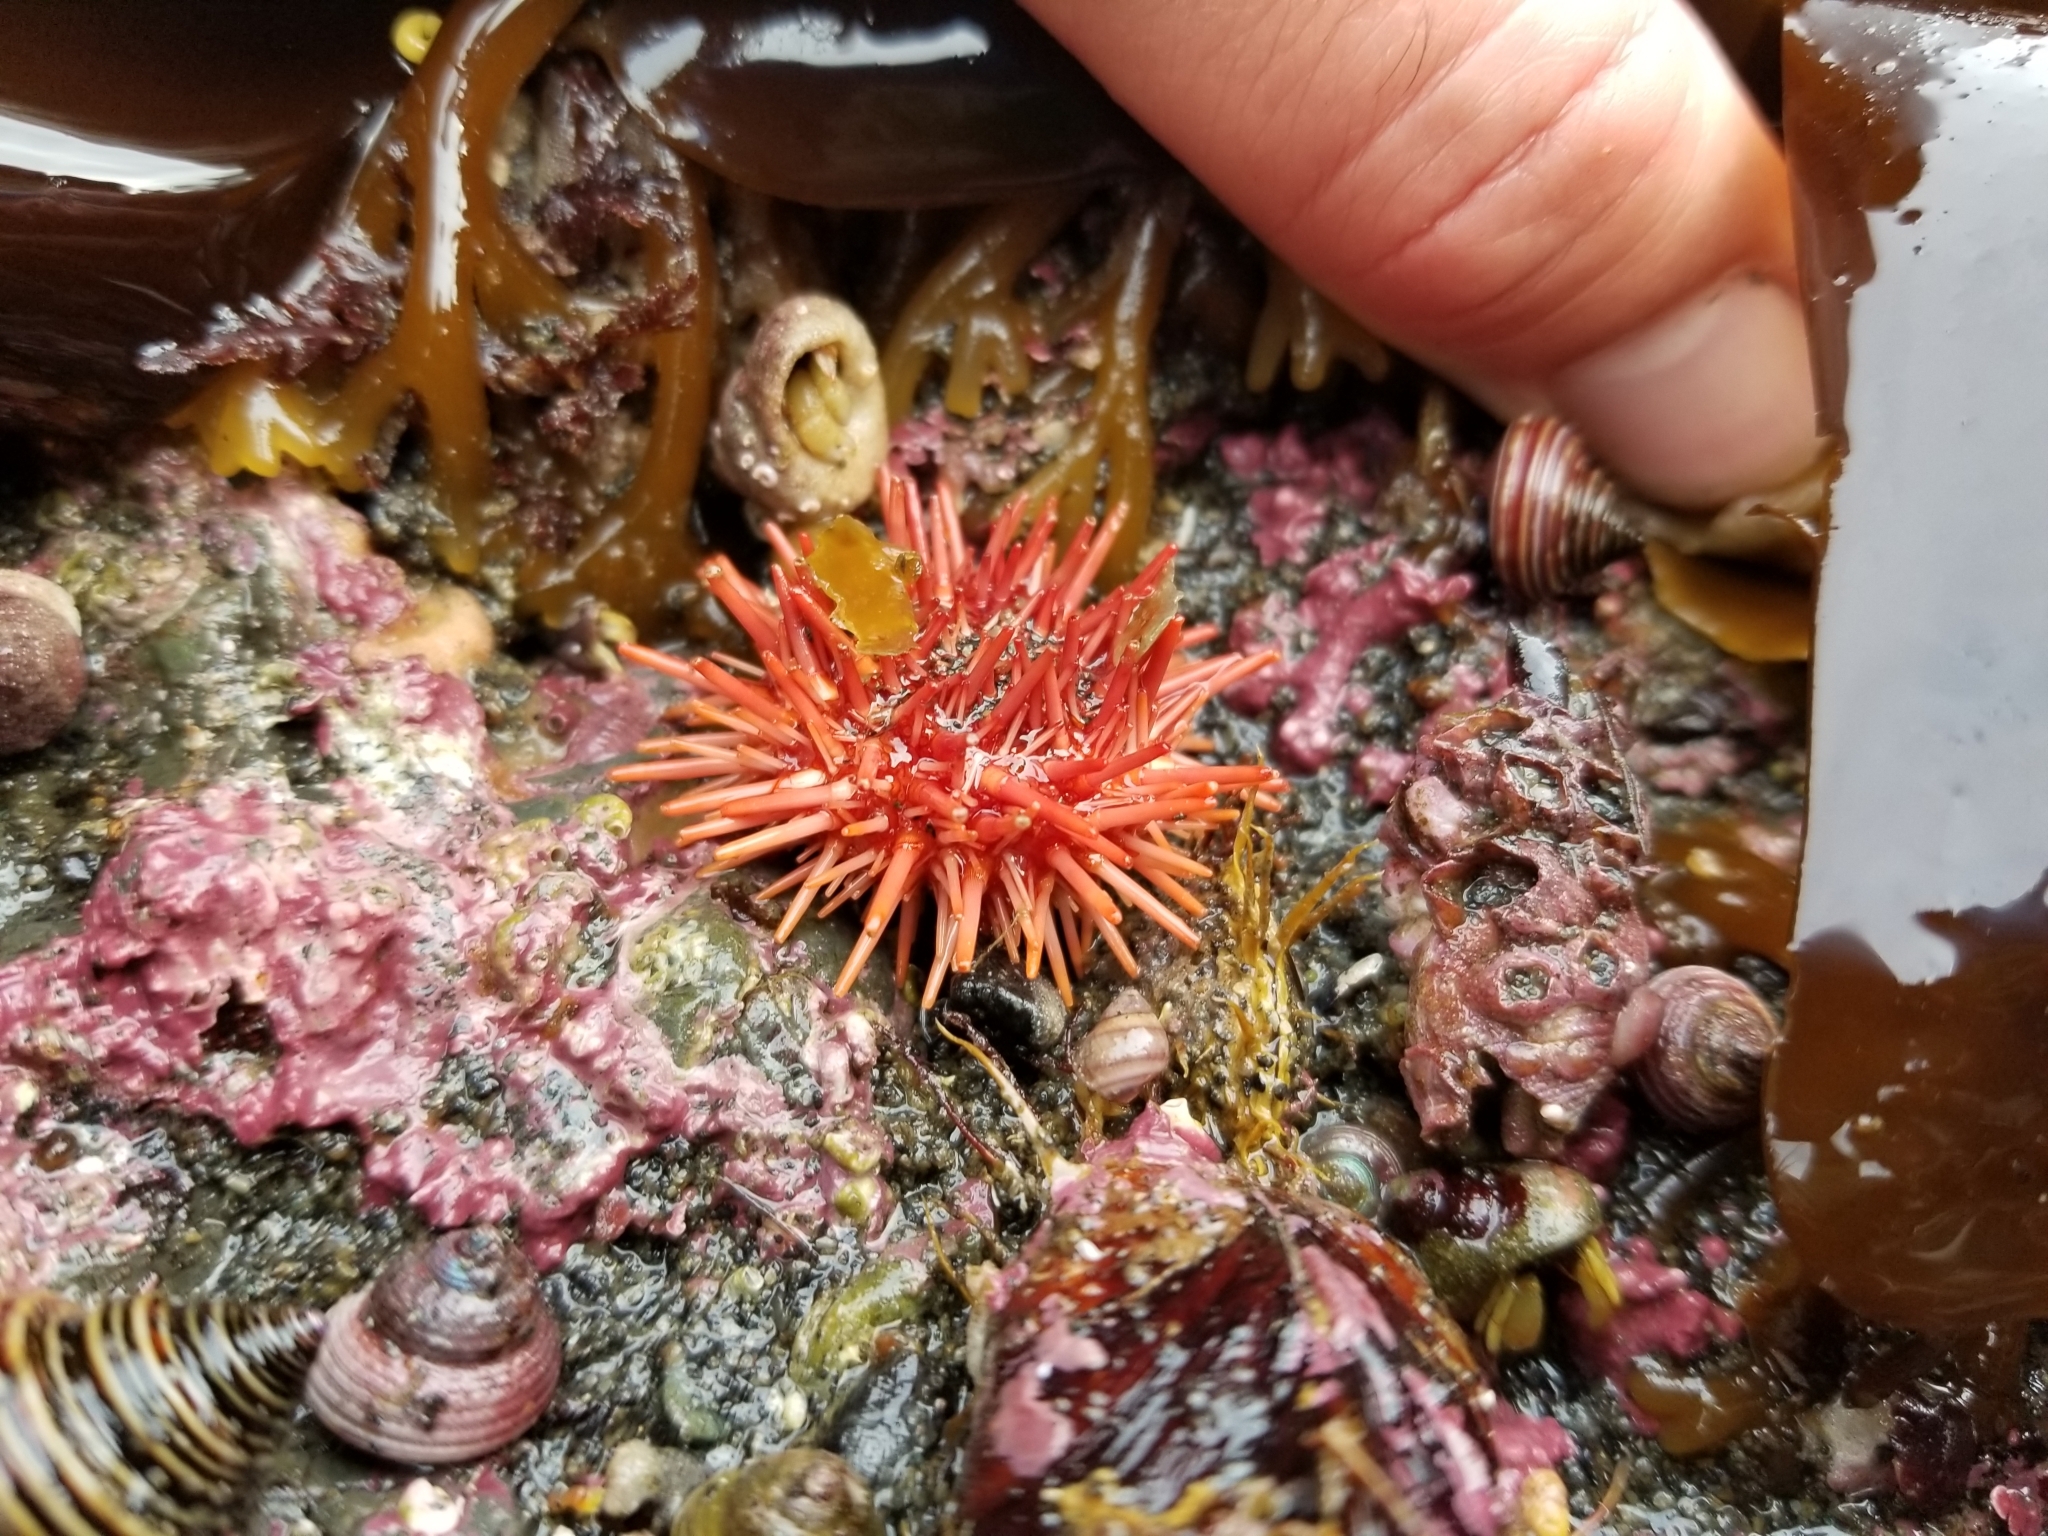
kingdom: Animalia
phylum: Echinodermata
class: Echinoidea
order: Camarodonta
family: Strongylocentrotidae
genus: Mesocentrotus
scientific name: Mesocentrotus franciscanus
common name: Red sea urchin
